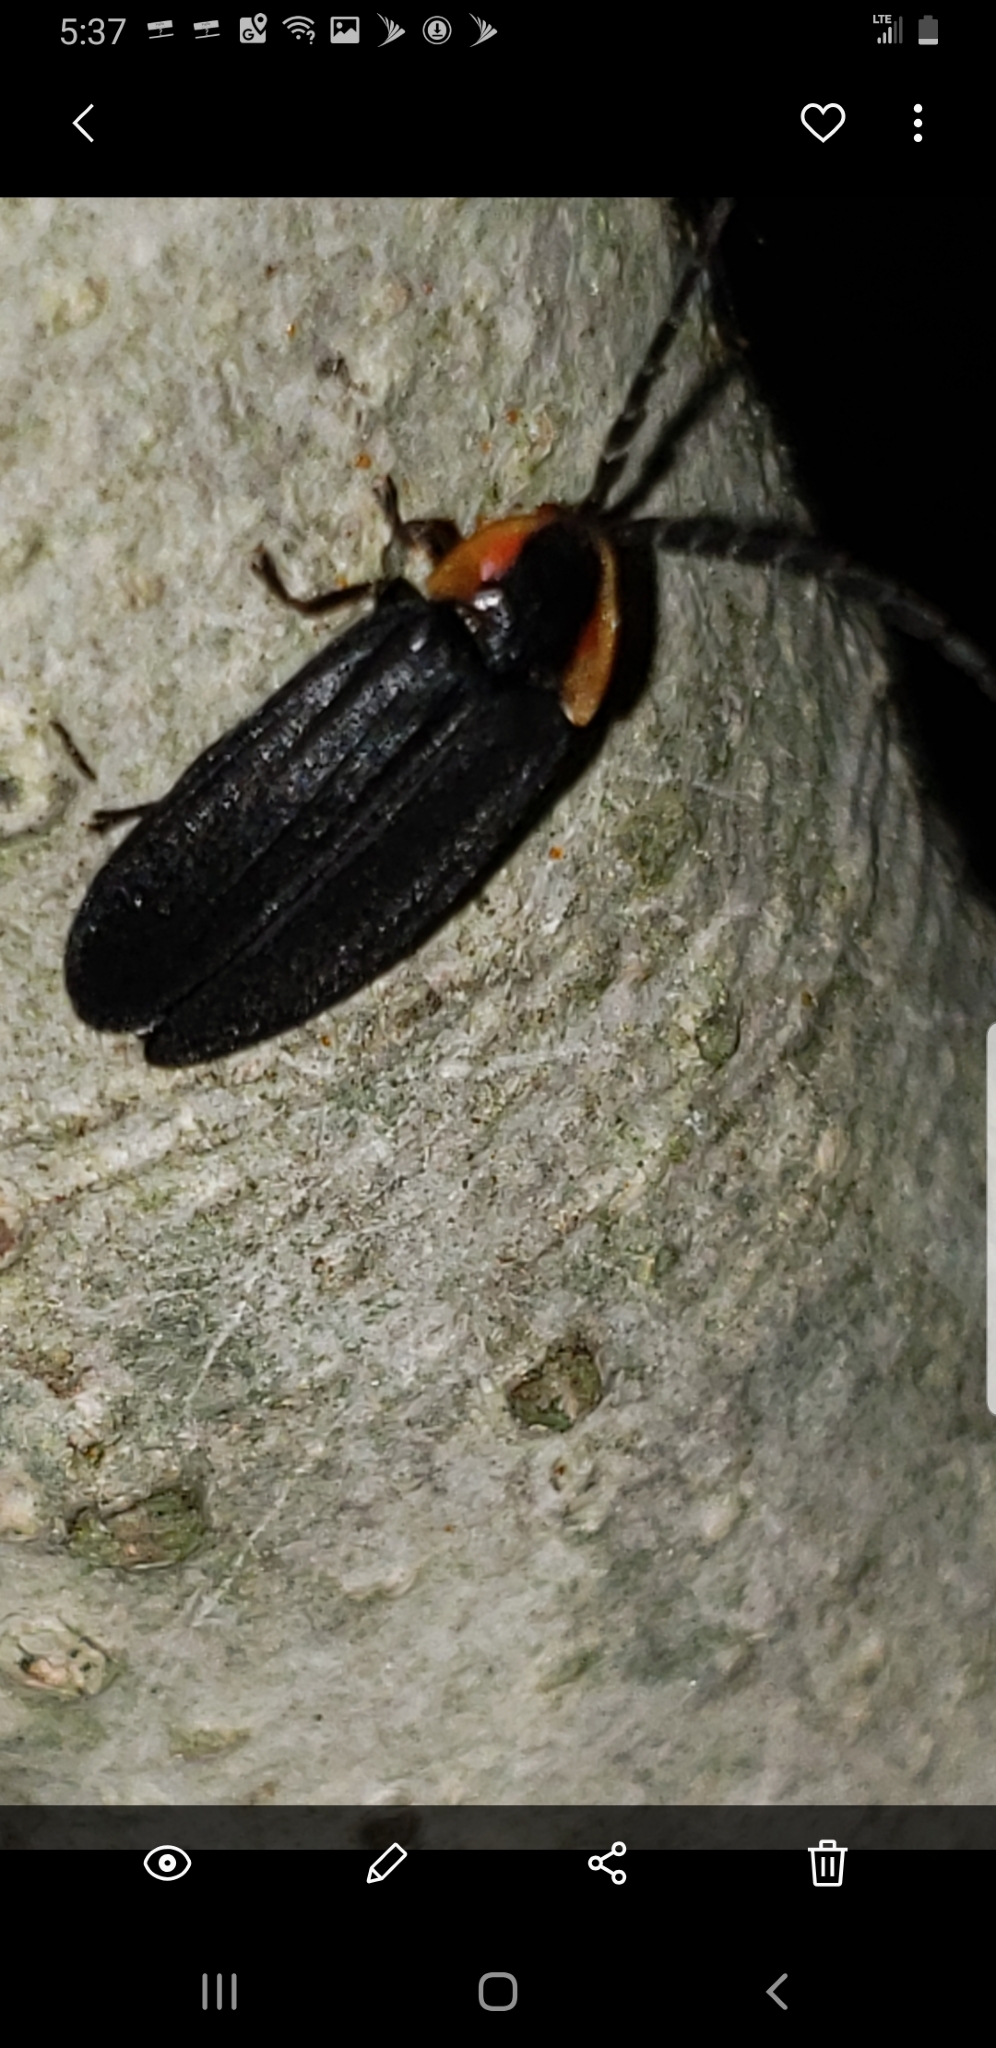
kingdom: Animalia
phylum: Arthropoda
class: Insecta
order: Coleoptera
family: Lampyridae
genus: Lucidota
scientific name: Lucidota atra
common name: Black firefly
